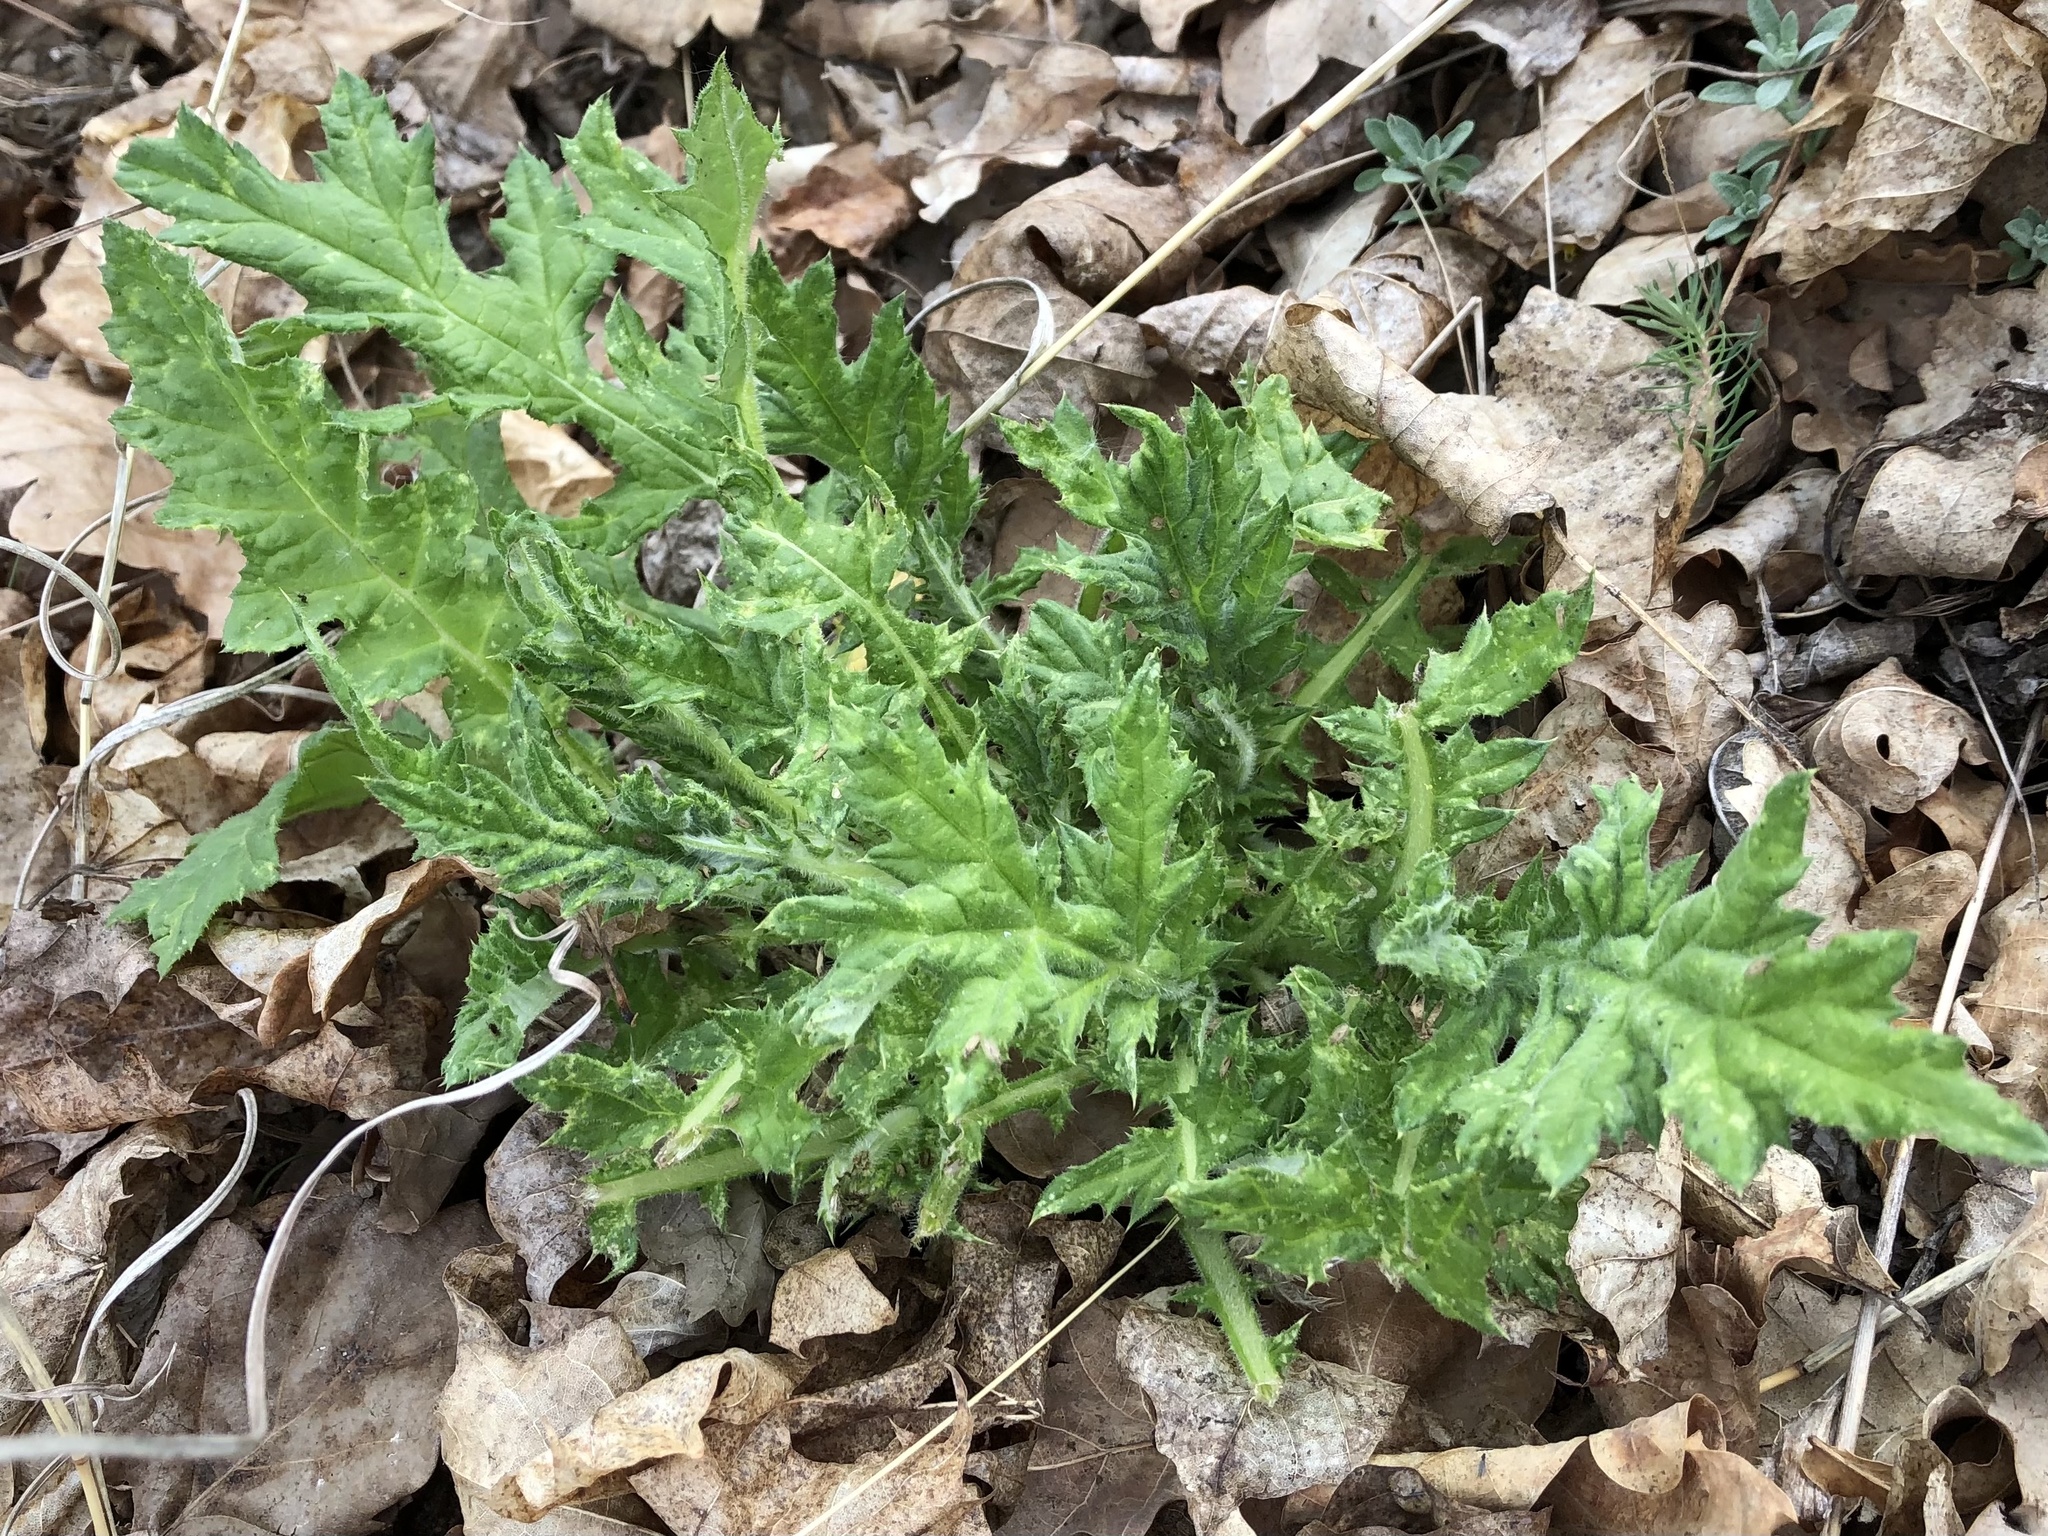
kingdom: Plantae
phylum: Tracheophyta
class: Magnoliopsida
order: Asterales
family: Asteraceae
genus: Echinops
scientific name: Echinops sphaerocephalus
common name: Glandular globe-thistle
